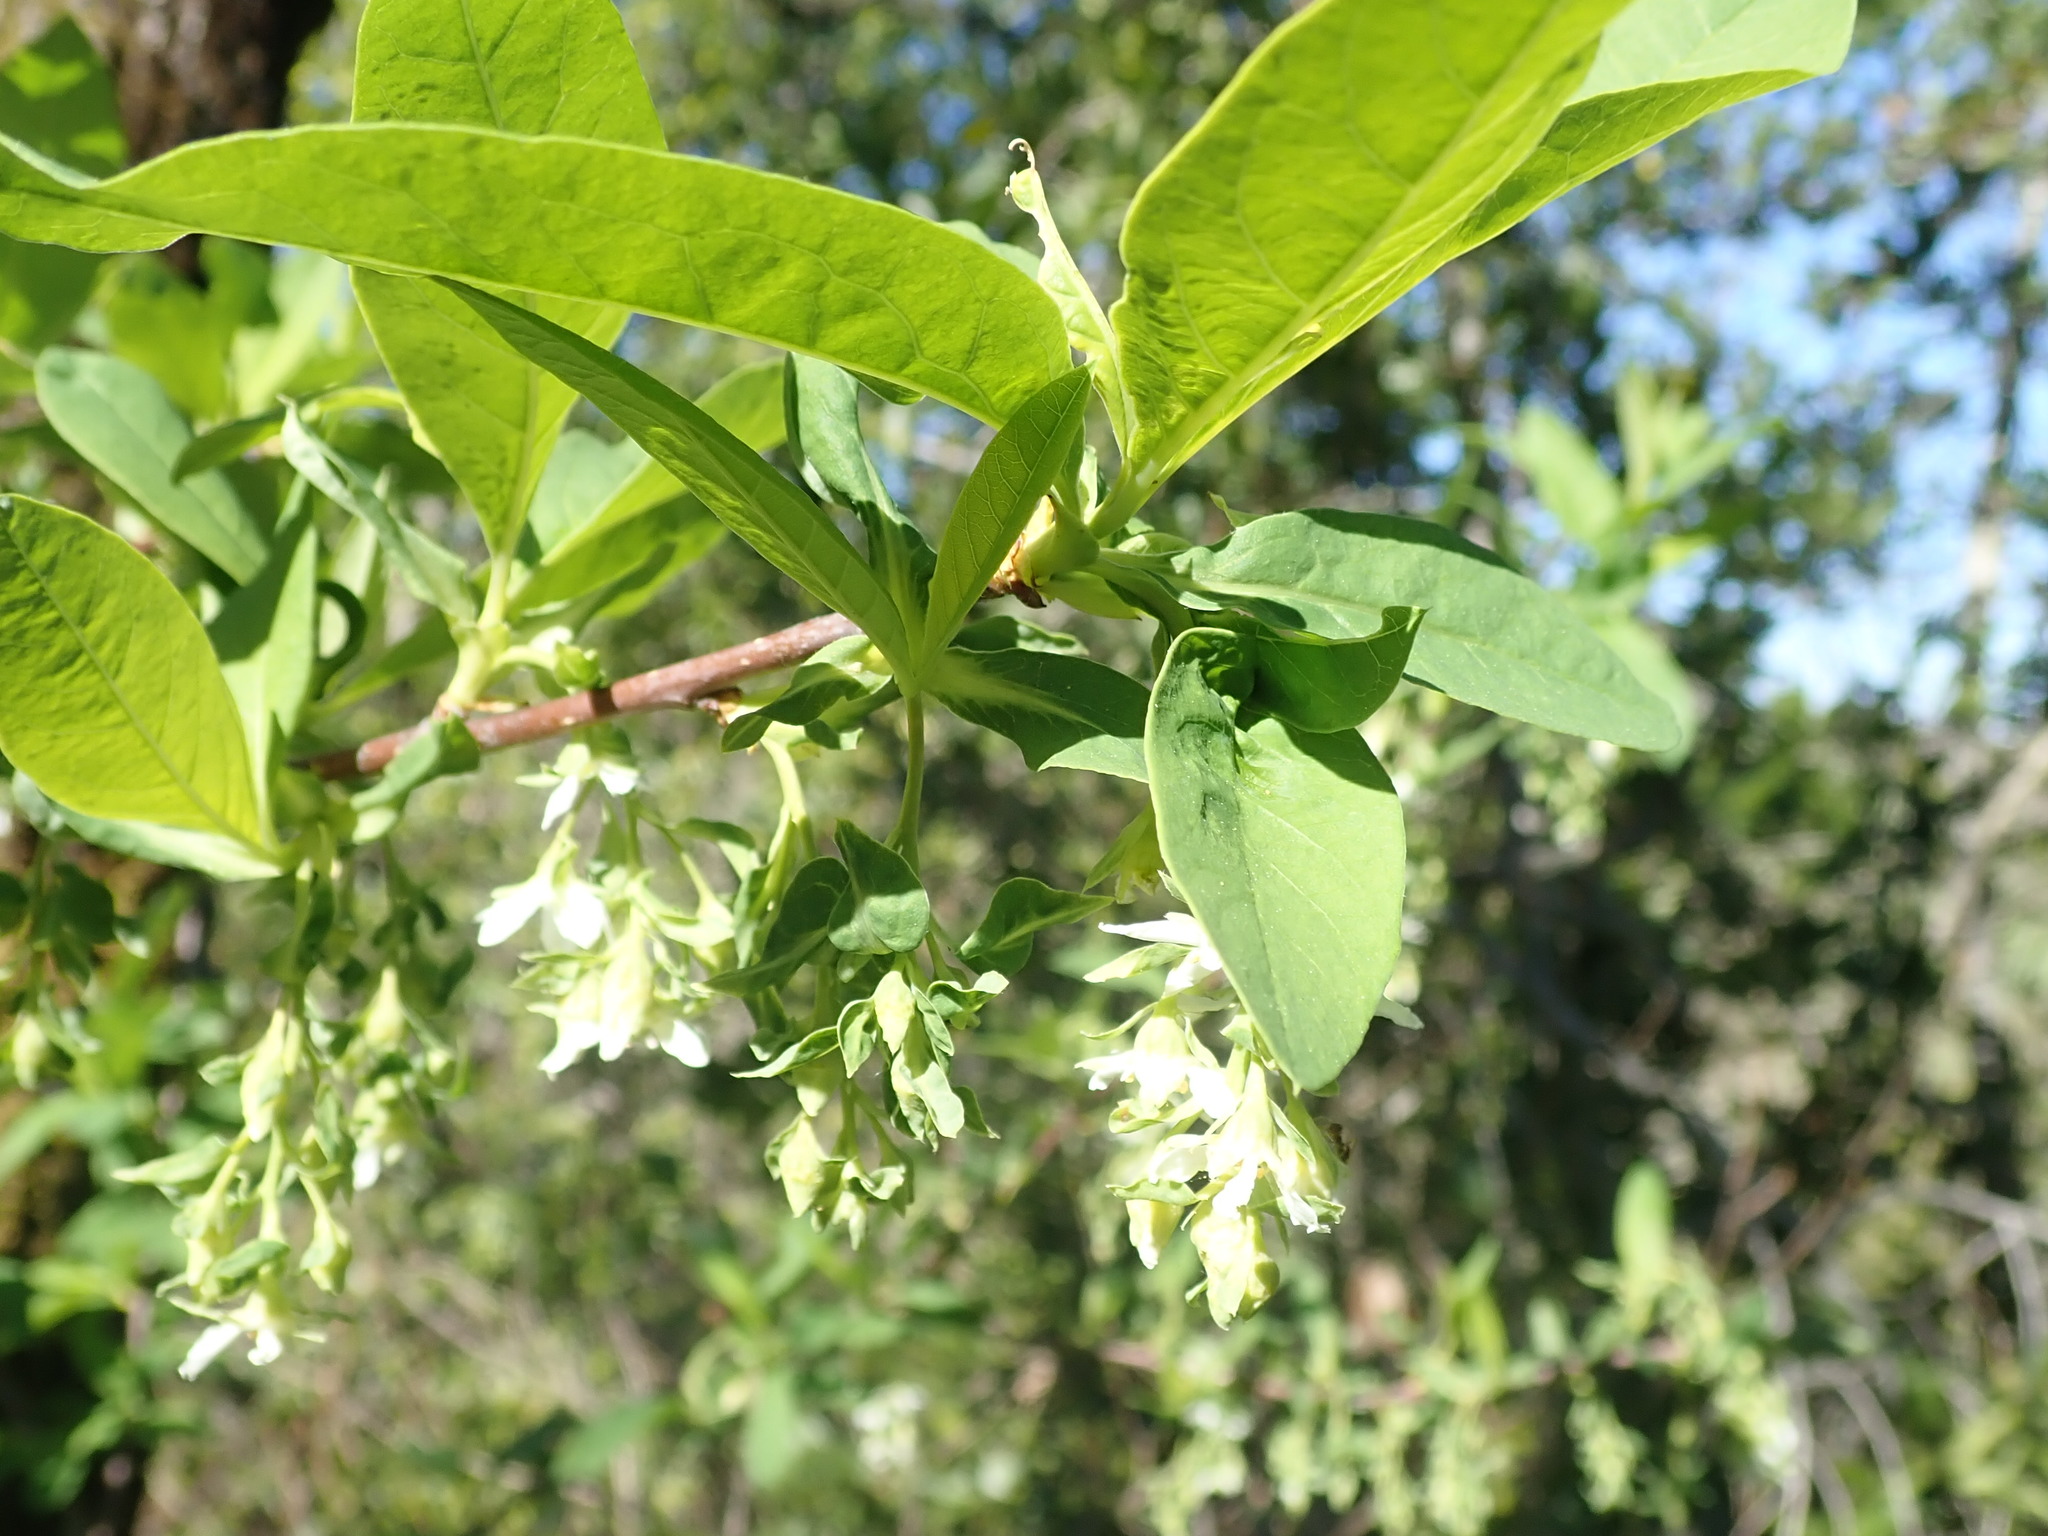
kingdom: Plantae
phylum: Tracheophyta
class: Magnoliopsida
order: Rosales
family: Rosaceae
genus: Oemleria
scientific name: Oemleria cerasiformis
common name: Osoberry
